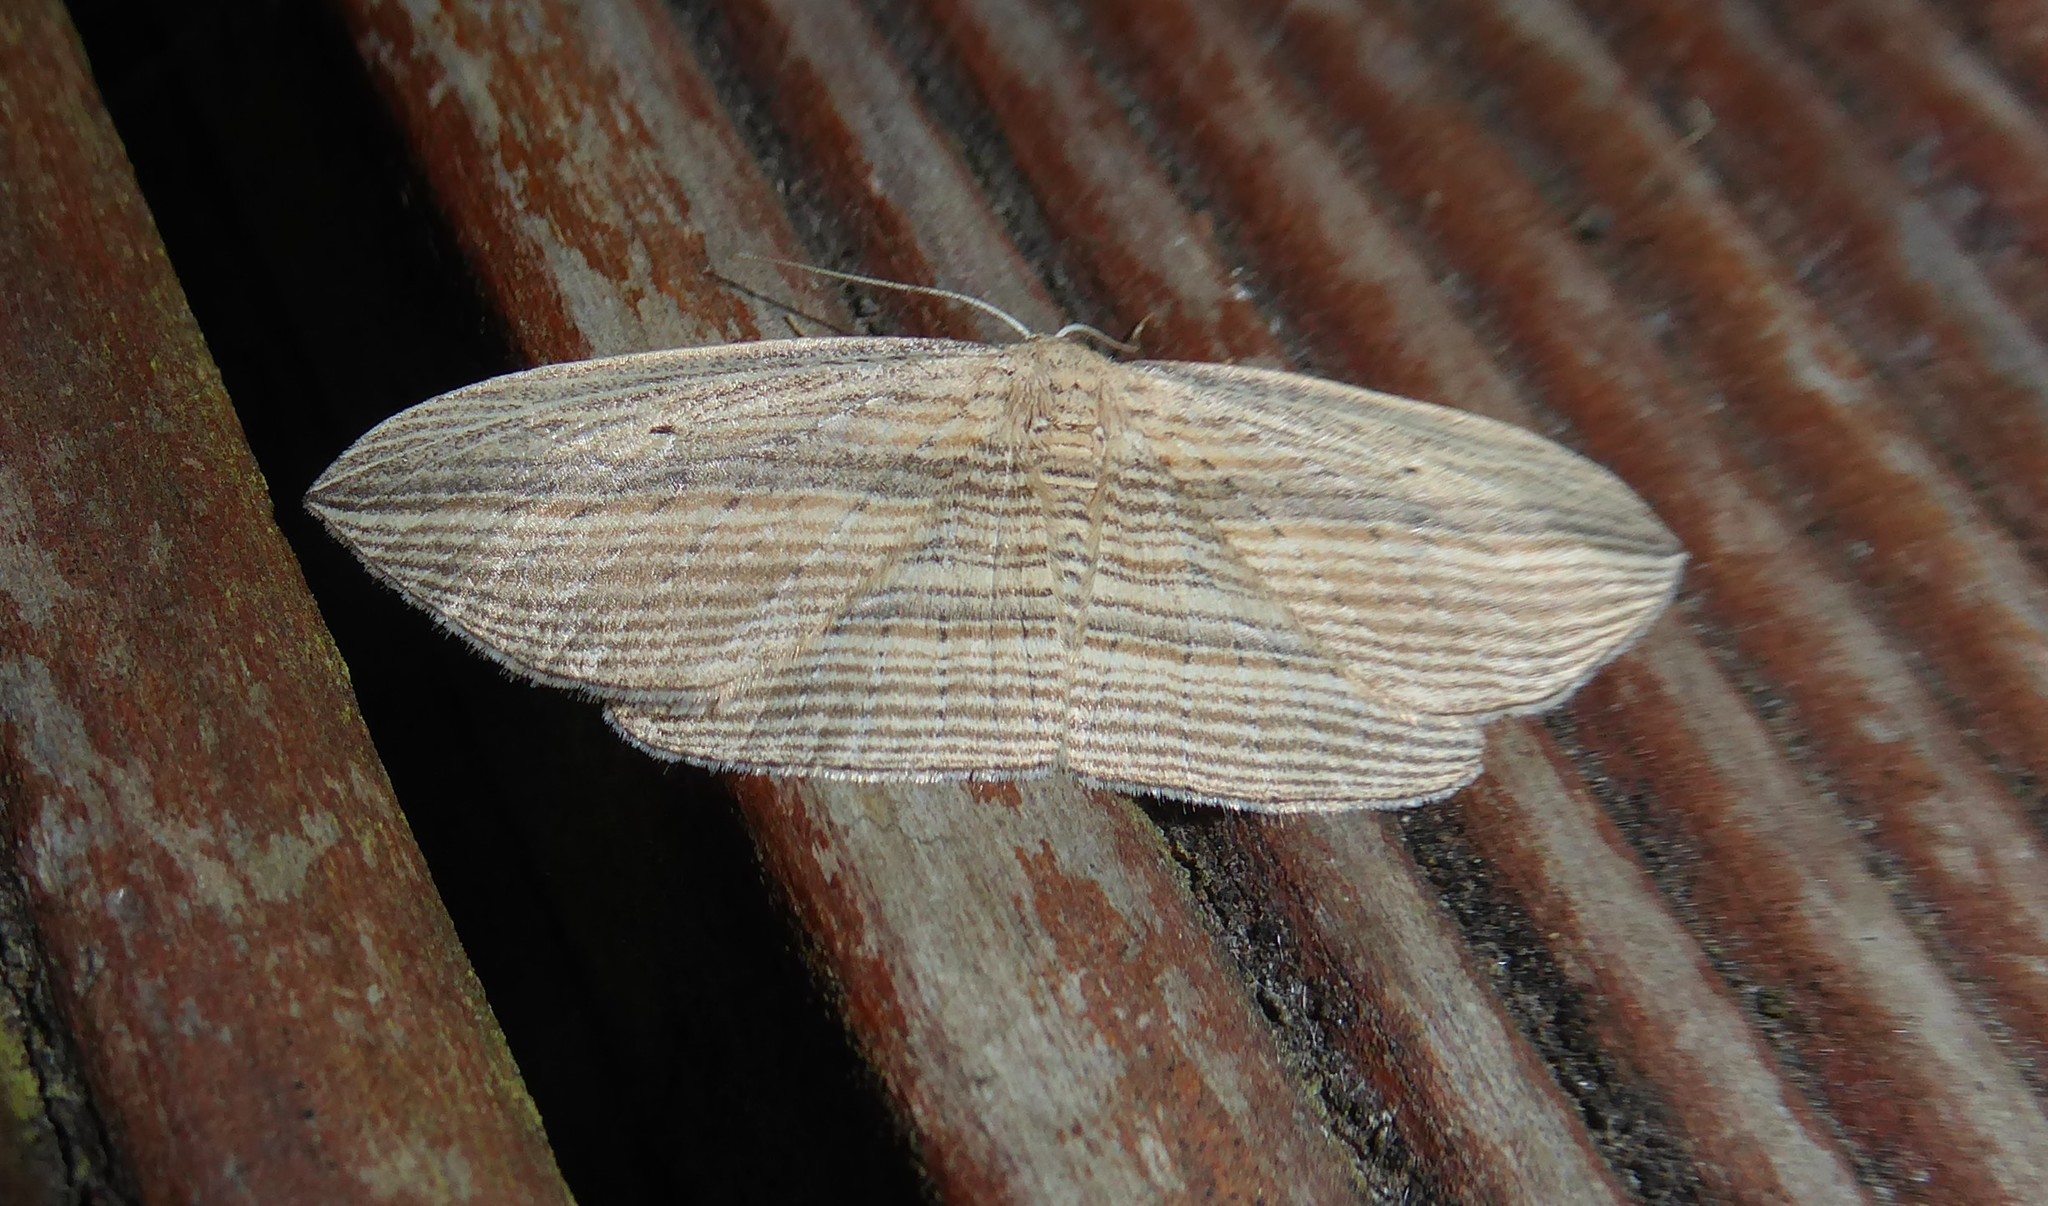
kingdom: Animalia
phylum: Arthropoda
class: Insecta
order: Lepidoptera
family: Geometridae
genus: Epiphryne
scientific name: Epiphryne verriculata
